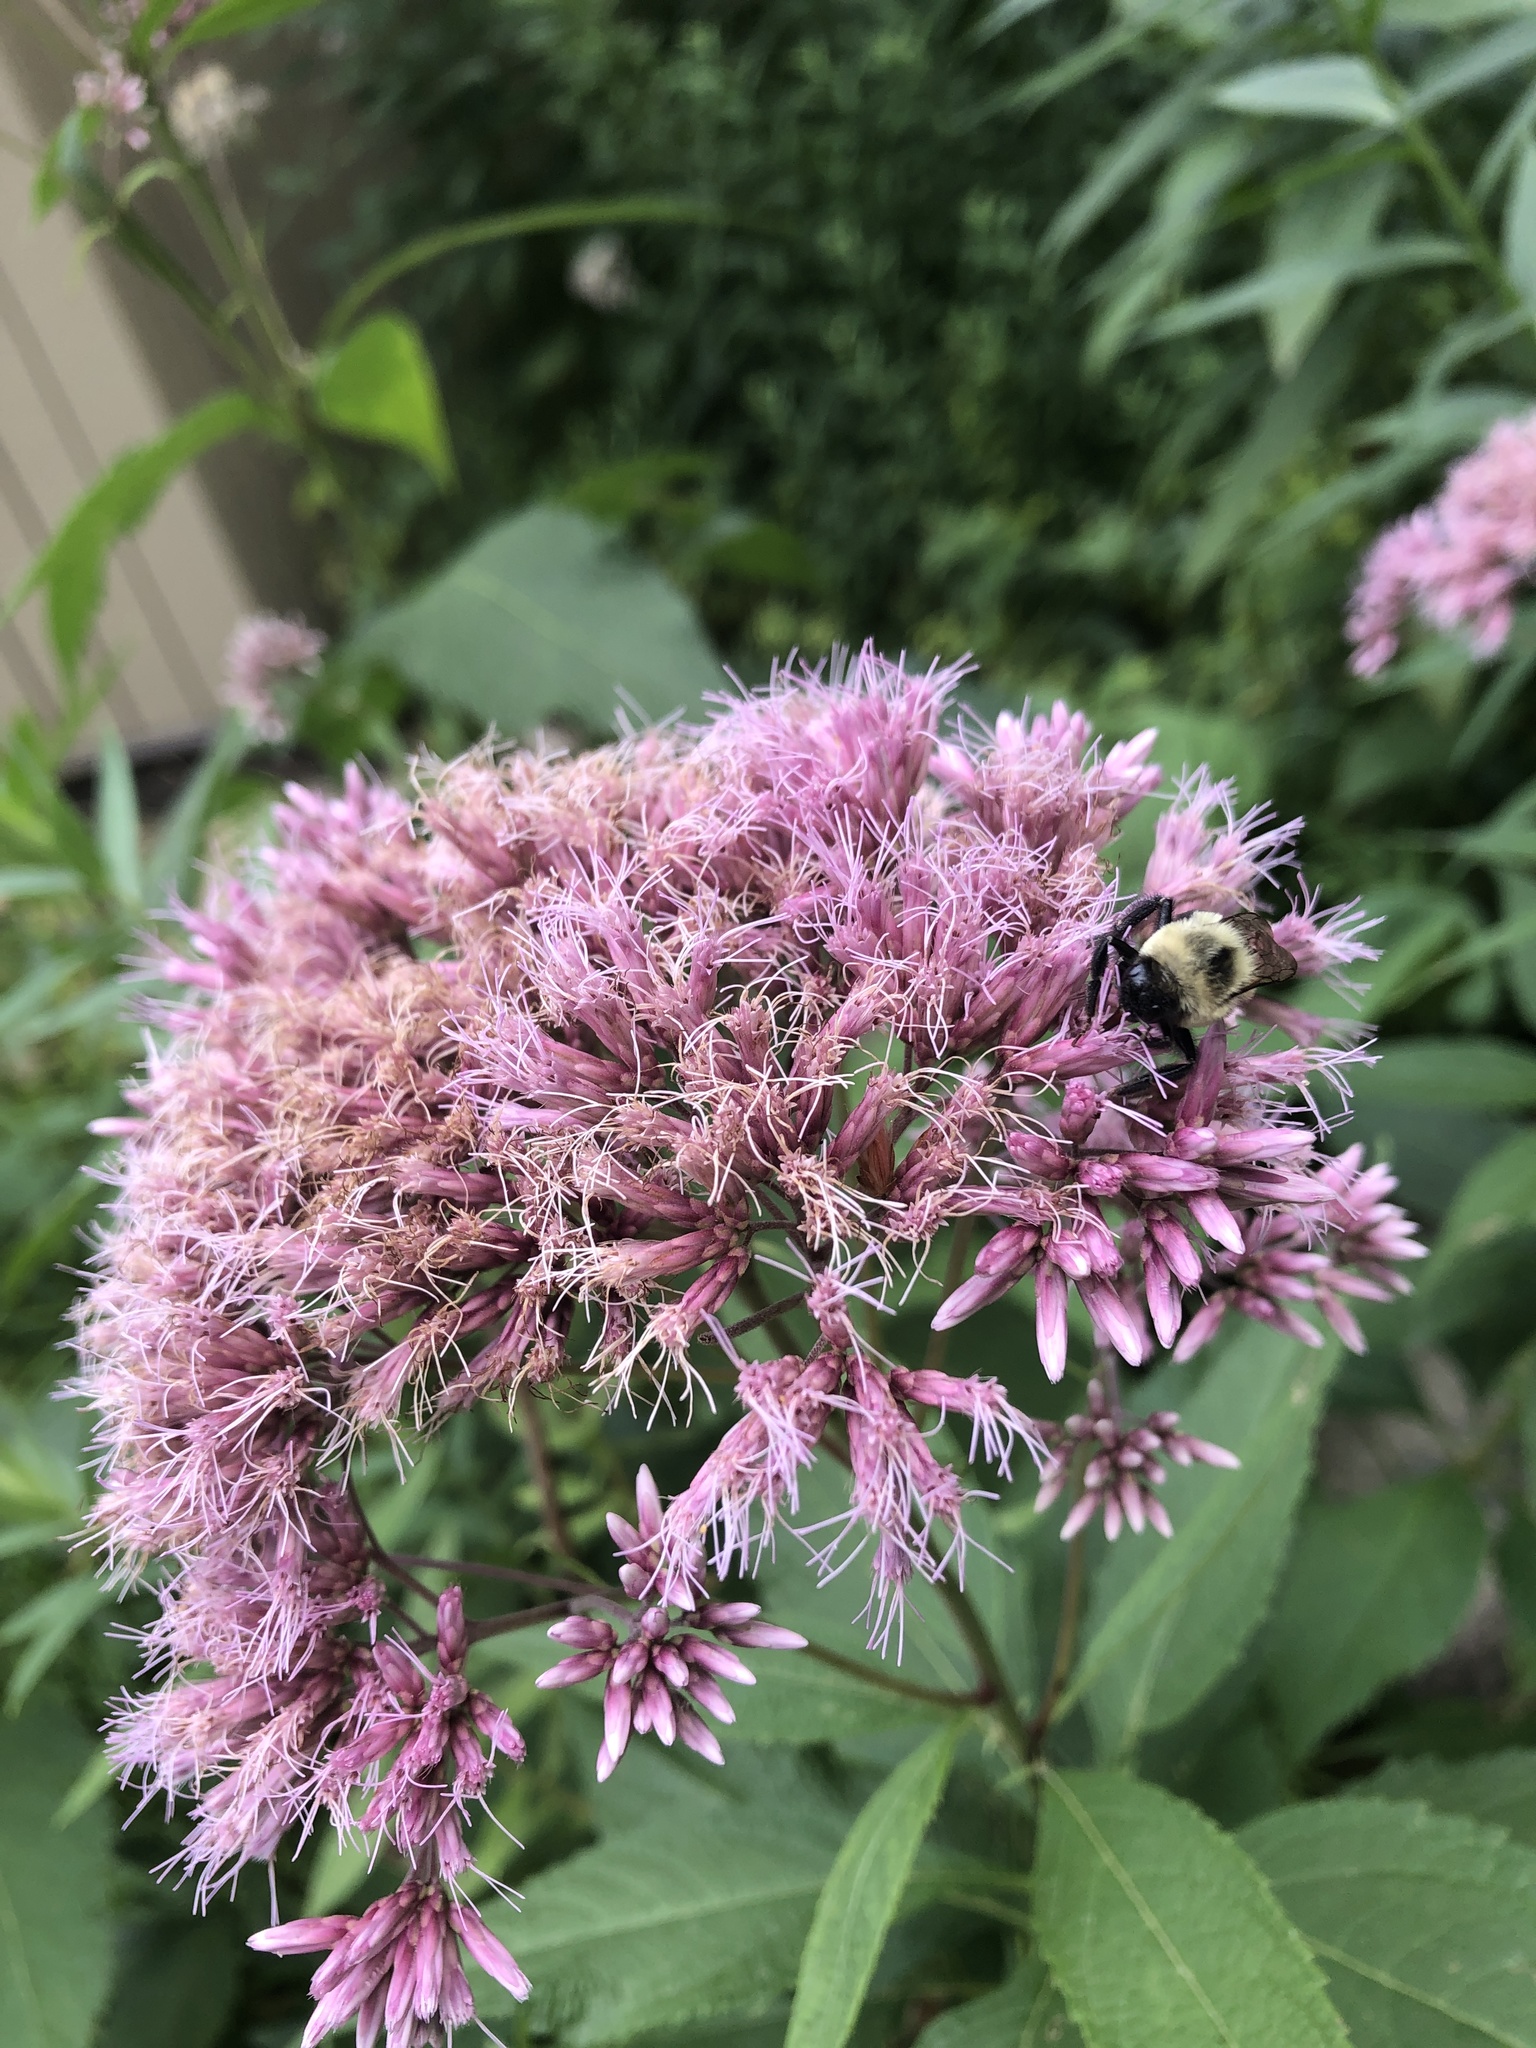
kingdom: Animalia
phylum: Arthropoda
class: Insecta
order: Hymenoptera
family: Apidae
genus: Bombus
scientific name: Bombus impatiens
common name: Common eastern bumble bee
